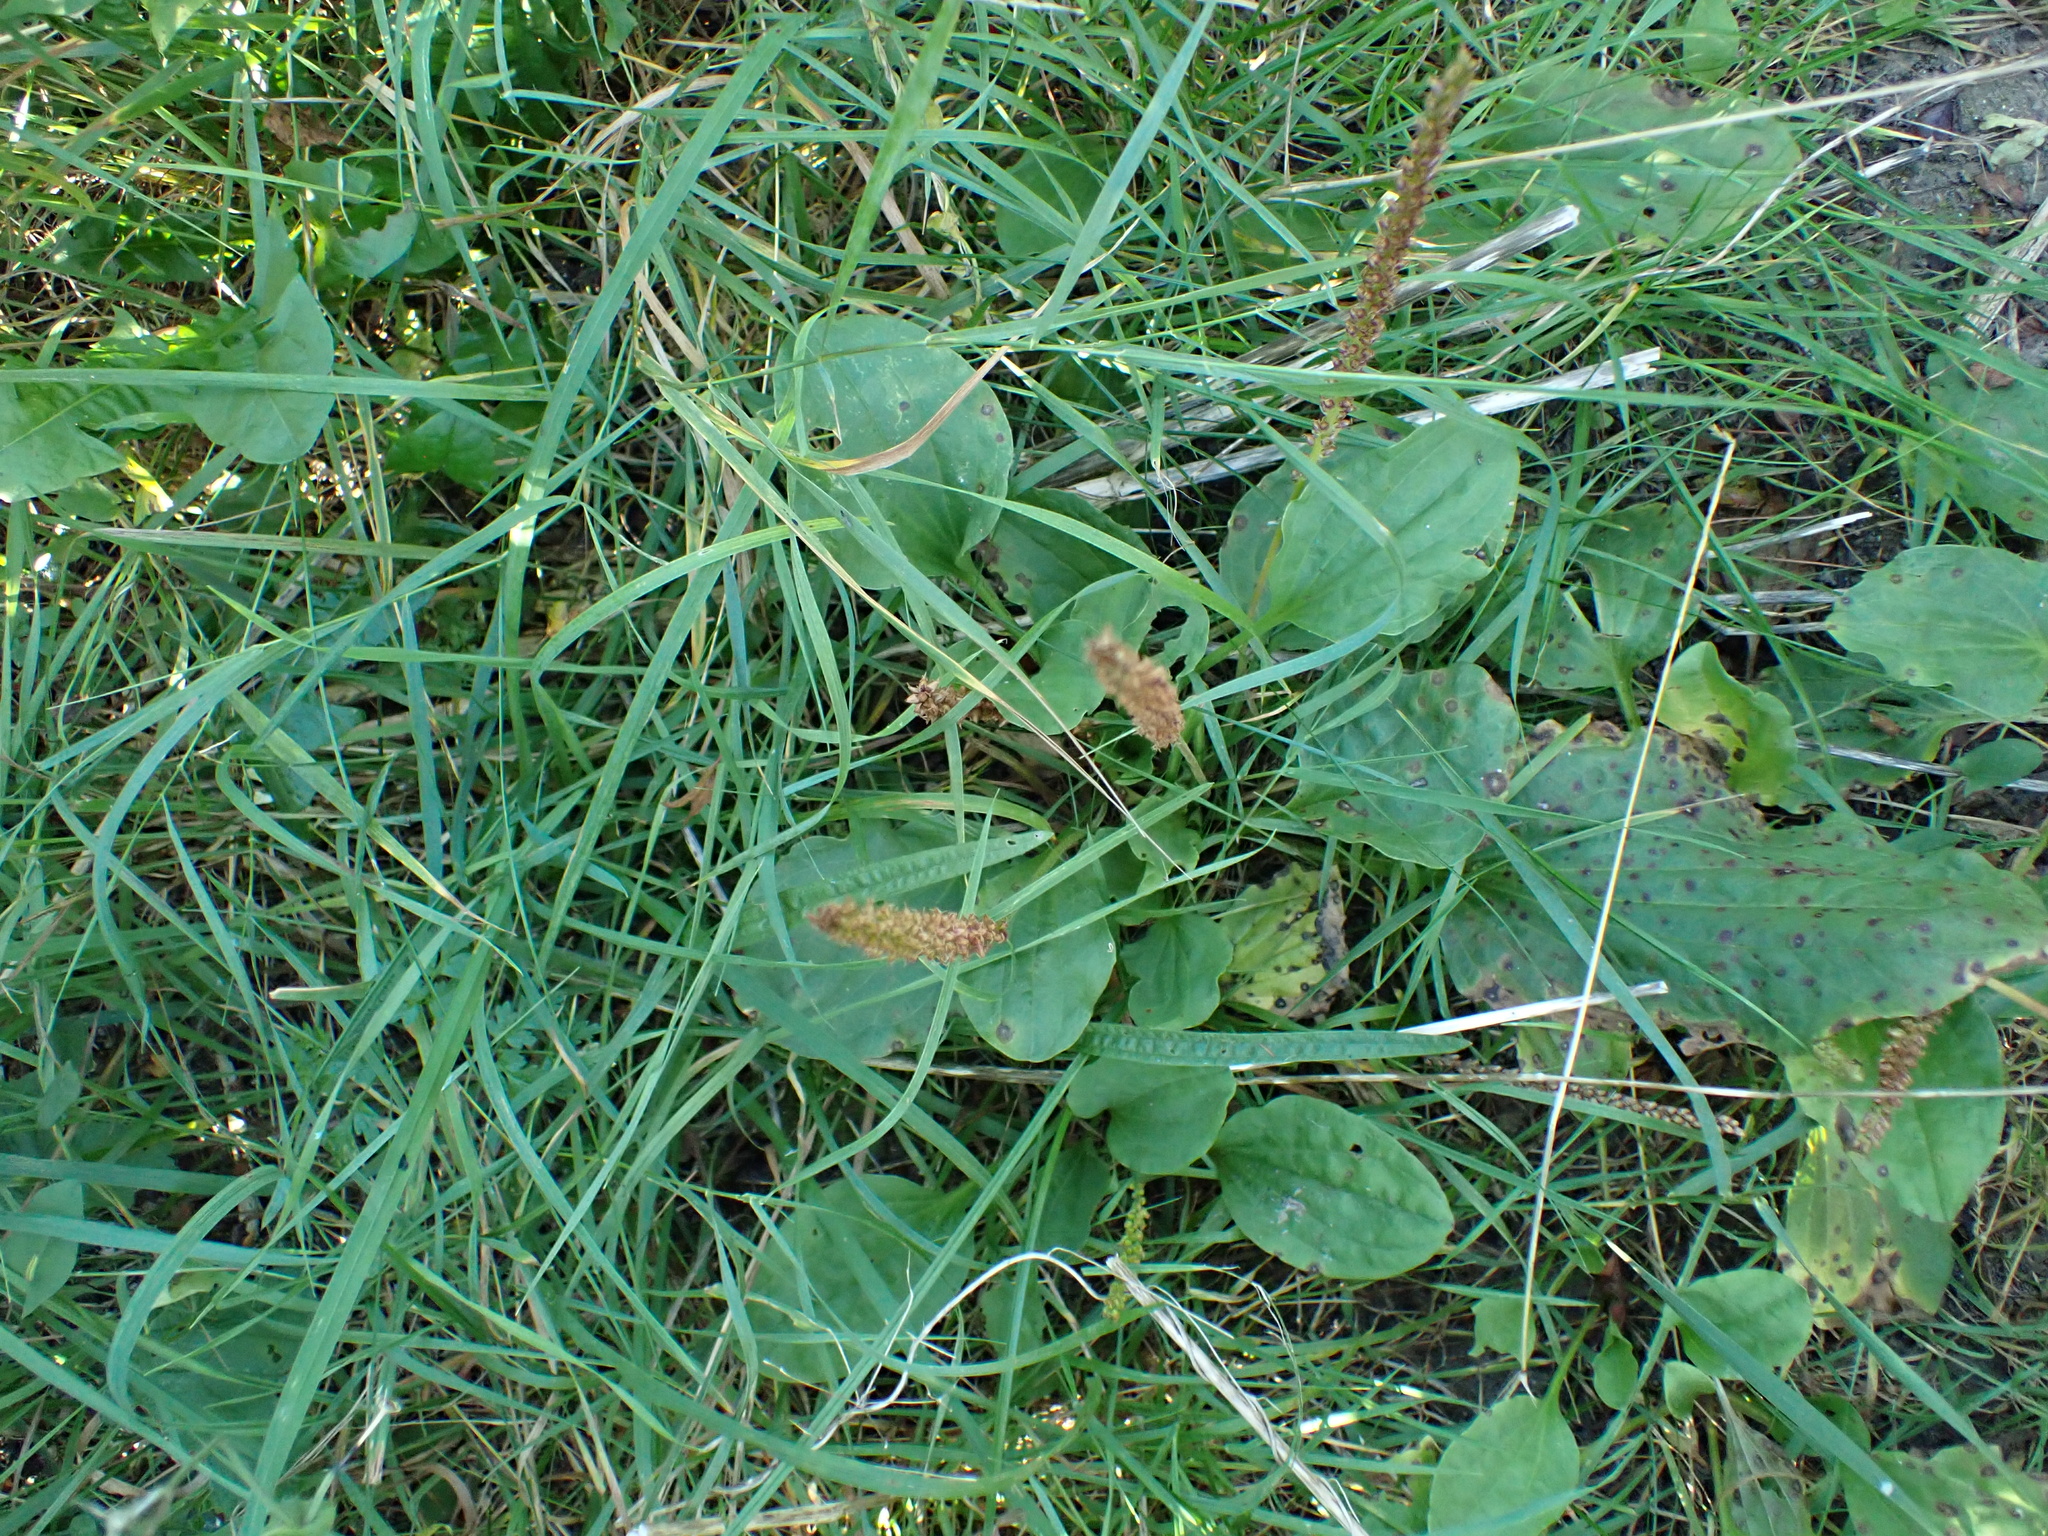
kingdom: Plantae
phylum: Tracheophyta
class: Magnoliopsida
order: Lamiales
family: Plantaginaceae
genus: Plantago
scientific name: Plantago major
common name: Common plantain
